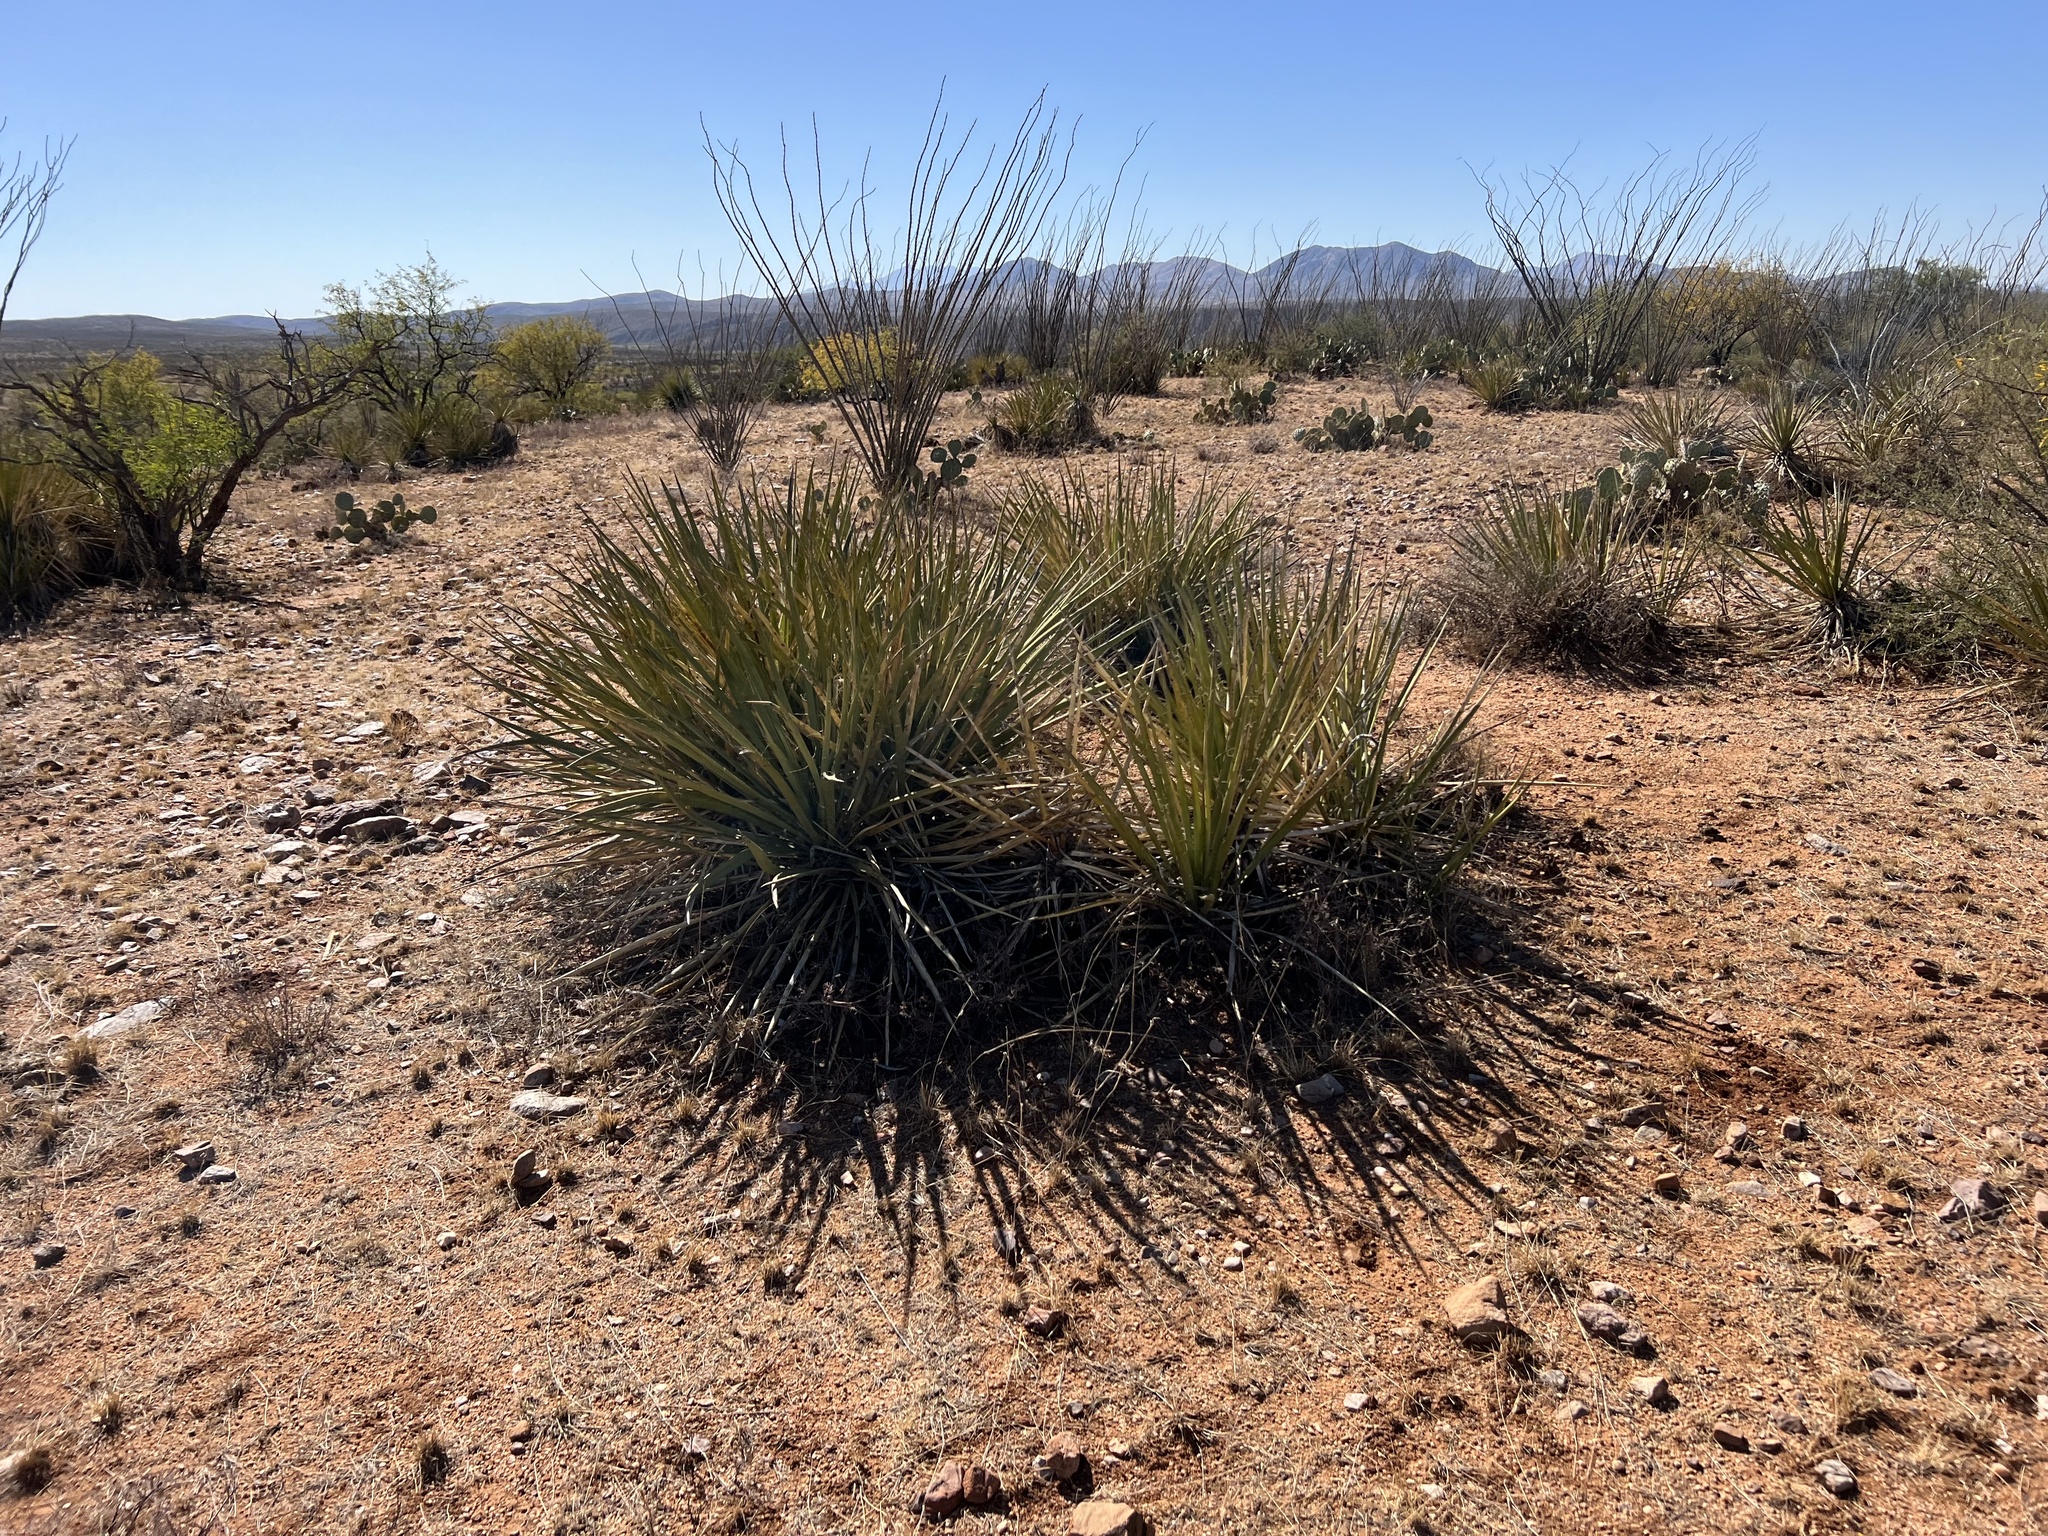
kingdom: Plantae
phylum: Tracheophyta
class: Liliopsida
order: Asparagales
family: Asparagaceae
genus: Yucca
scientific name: Yucca baccata
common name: Banana yucca
